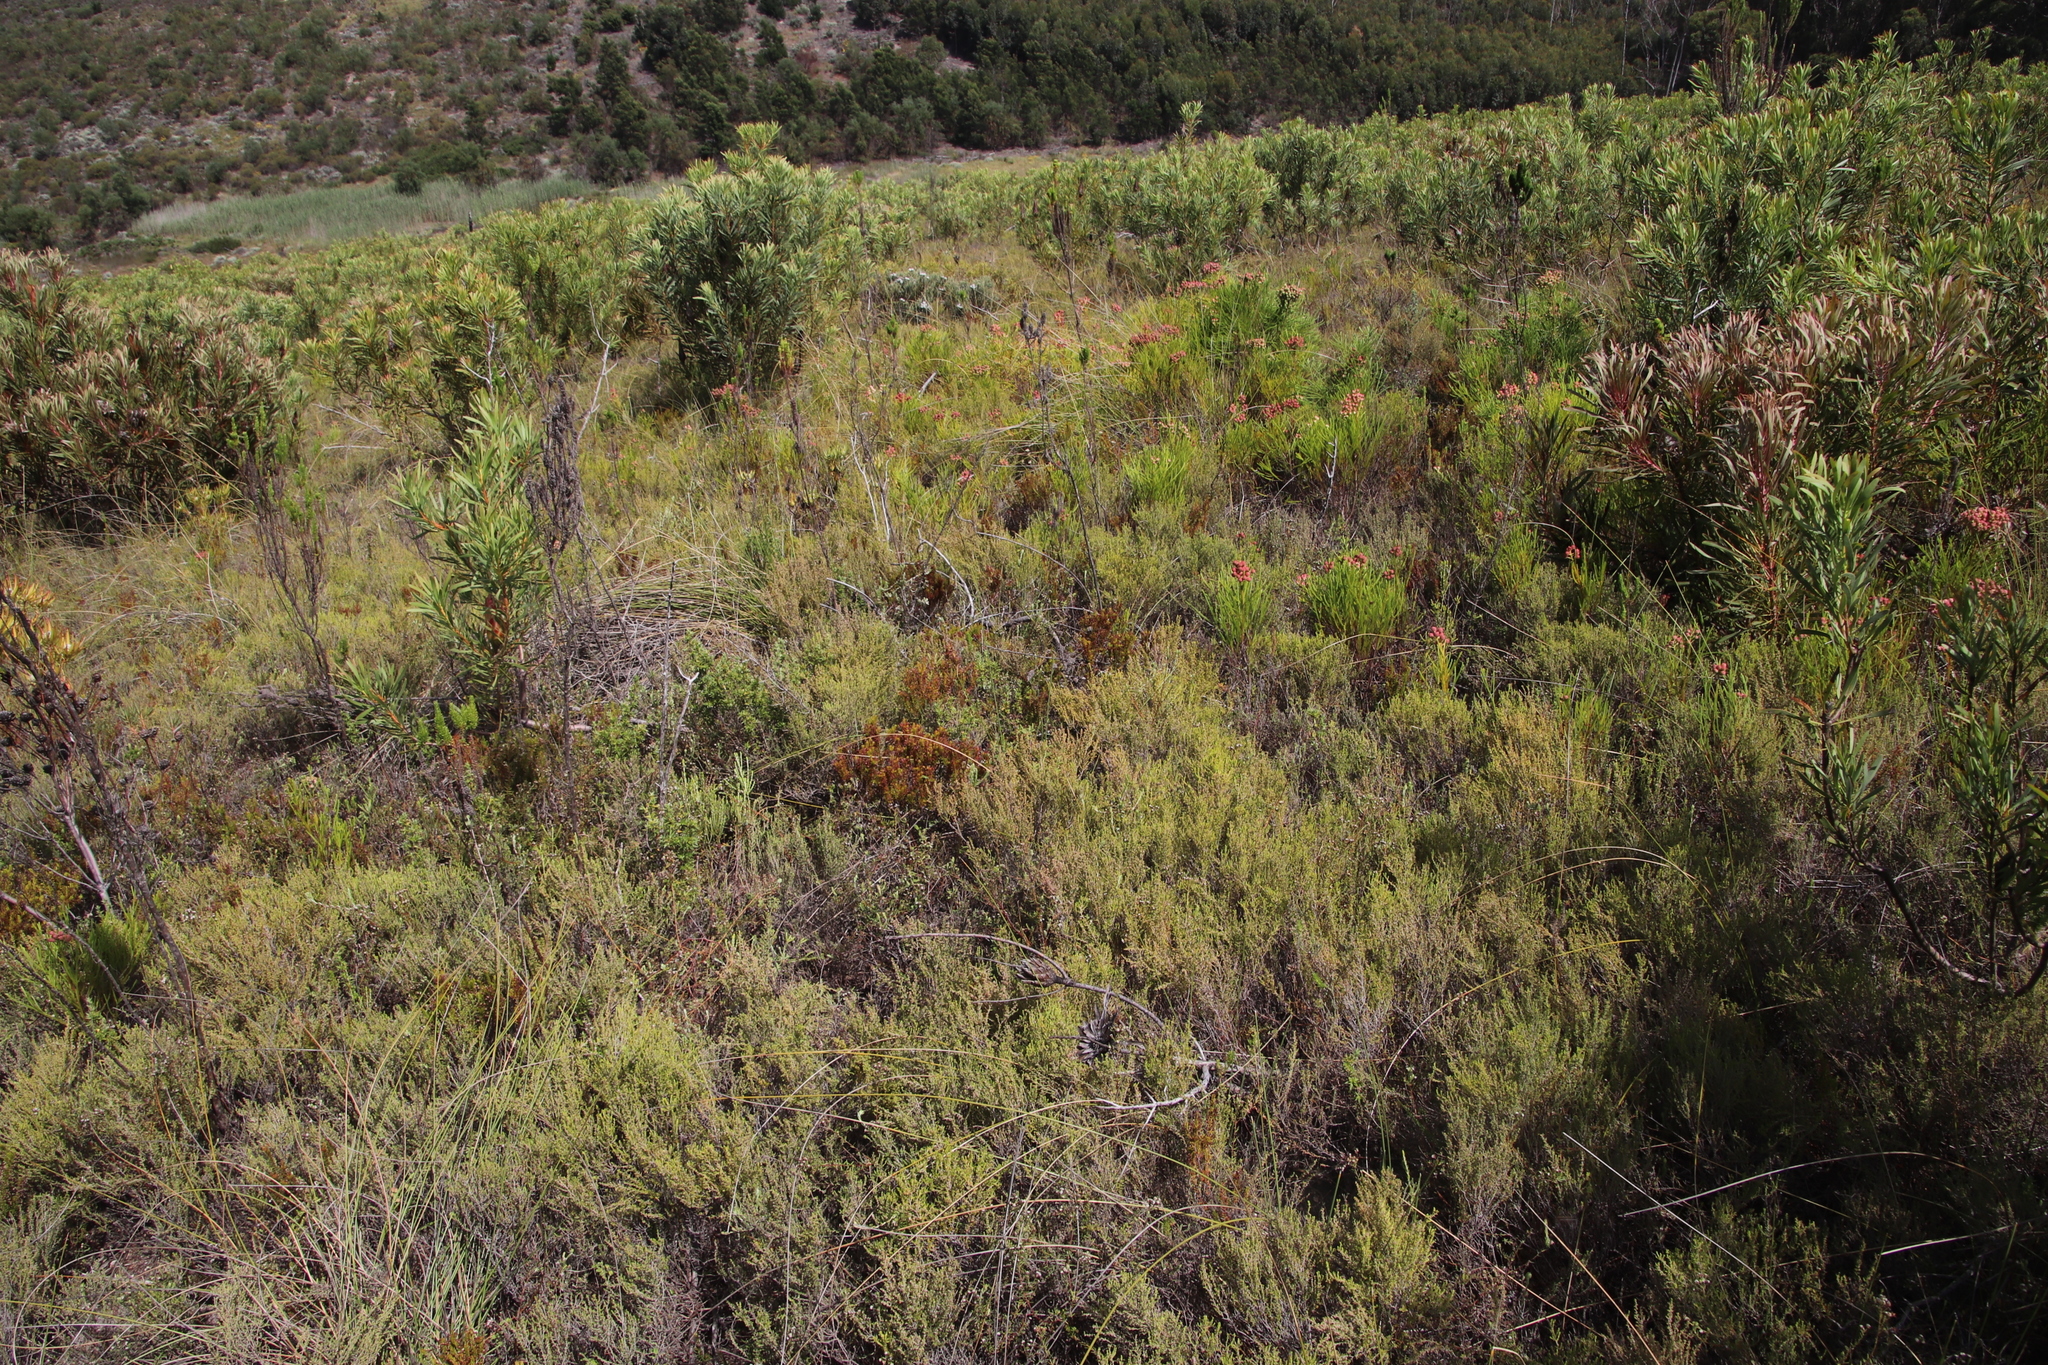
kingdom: Plantae
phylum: Tracheophyta
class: Magnoliopsida
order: Ericales
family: Ericaceae
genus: Erica
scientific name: Erica rubiginosa
